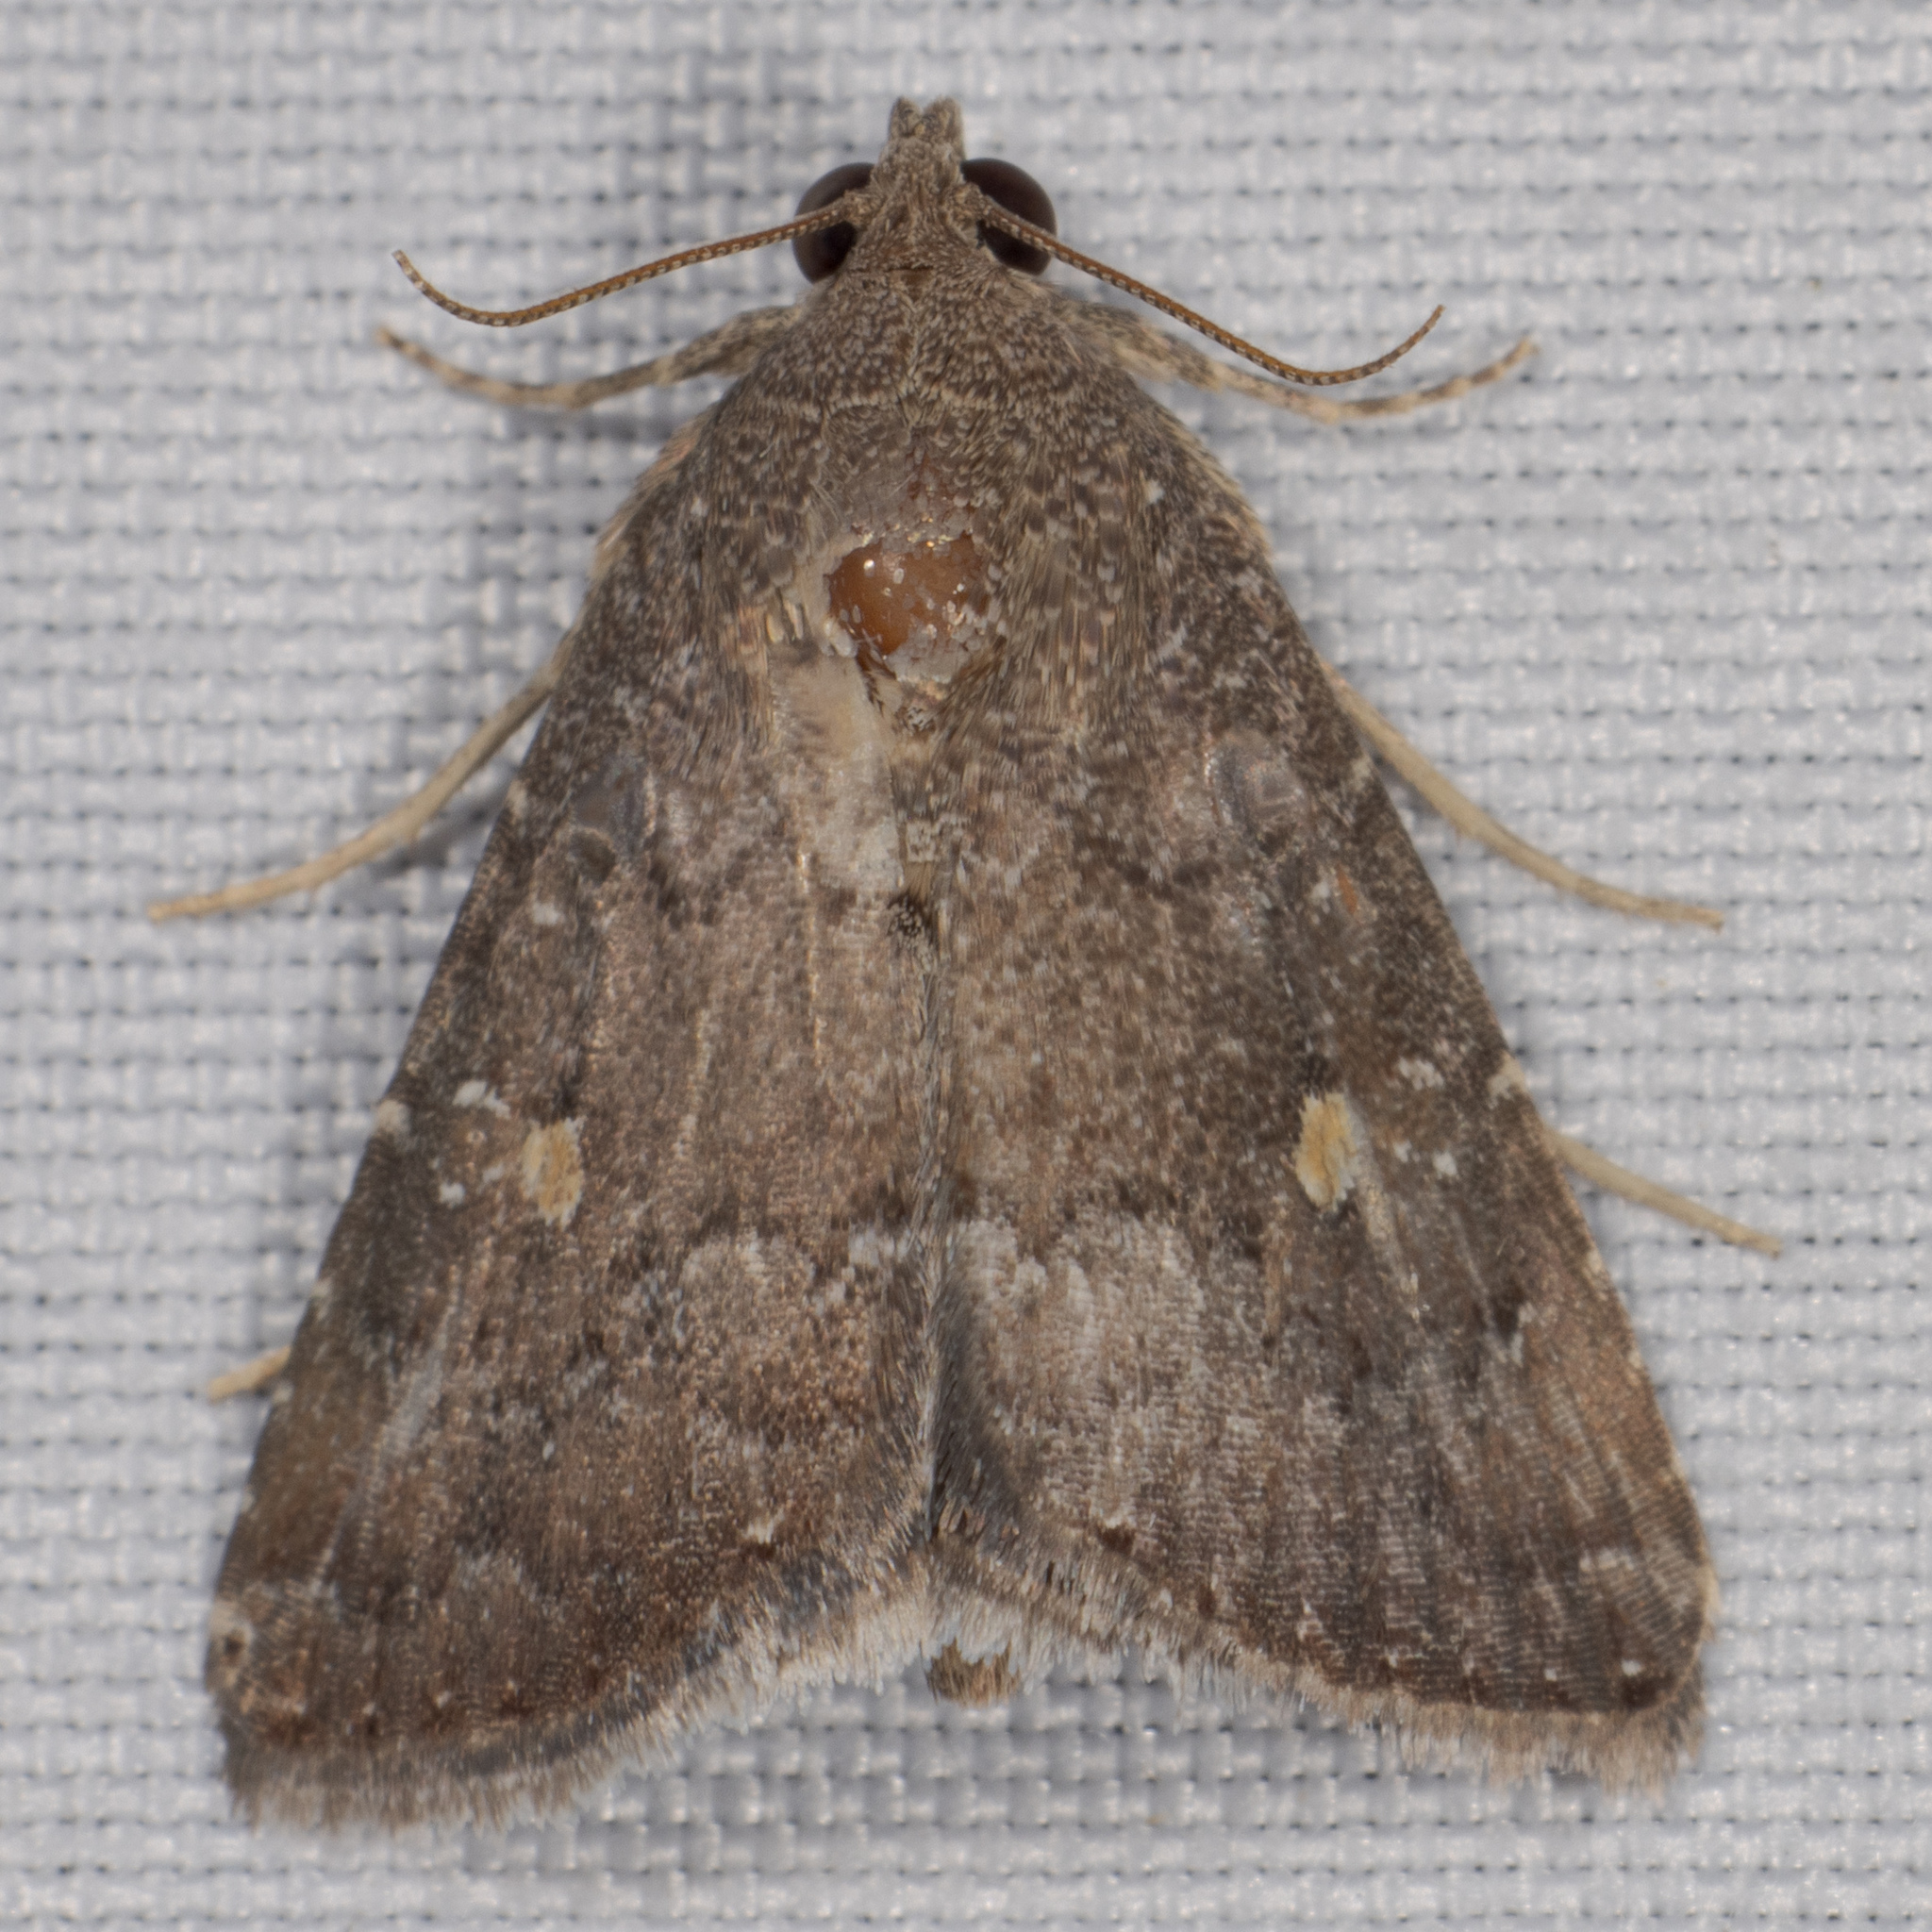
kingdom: Animalia
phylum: Arthropoda
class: Insecta
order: Lepidoptera
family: Noctuidae
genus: Amyna
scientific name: Amyna stricta
